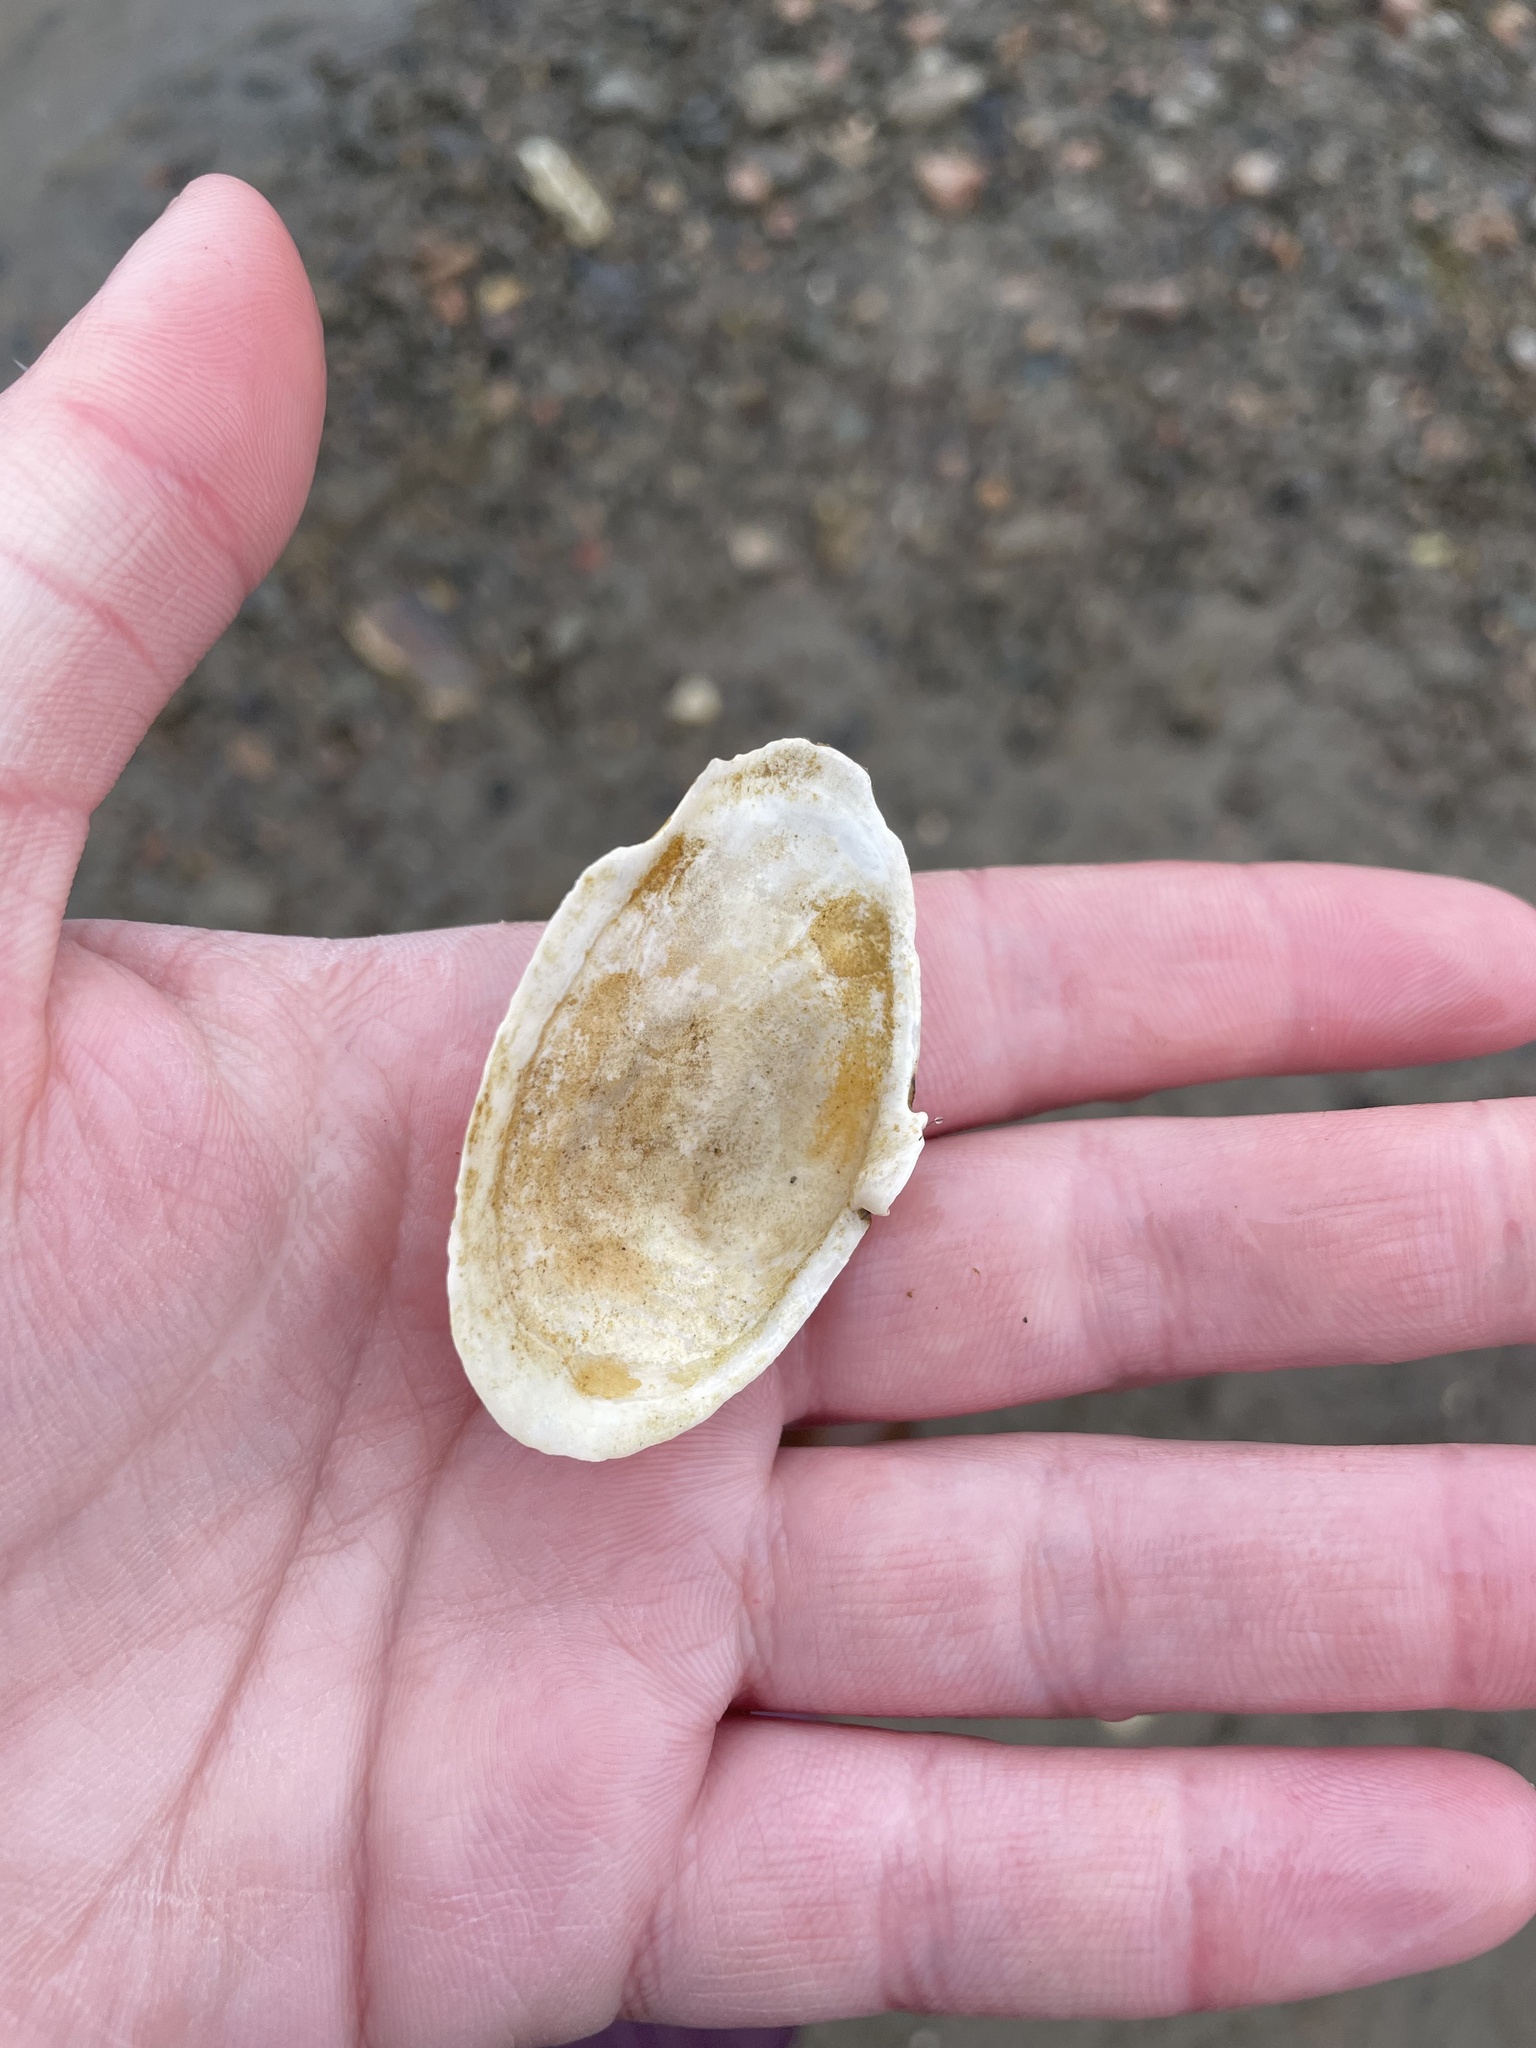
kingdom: Animalia
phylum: Mollusca
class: Bivalvia
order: Myida
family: Myidae
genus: Mya
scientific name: Mya arenaria
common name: Soft-shelled clam
